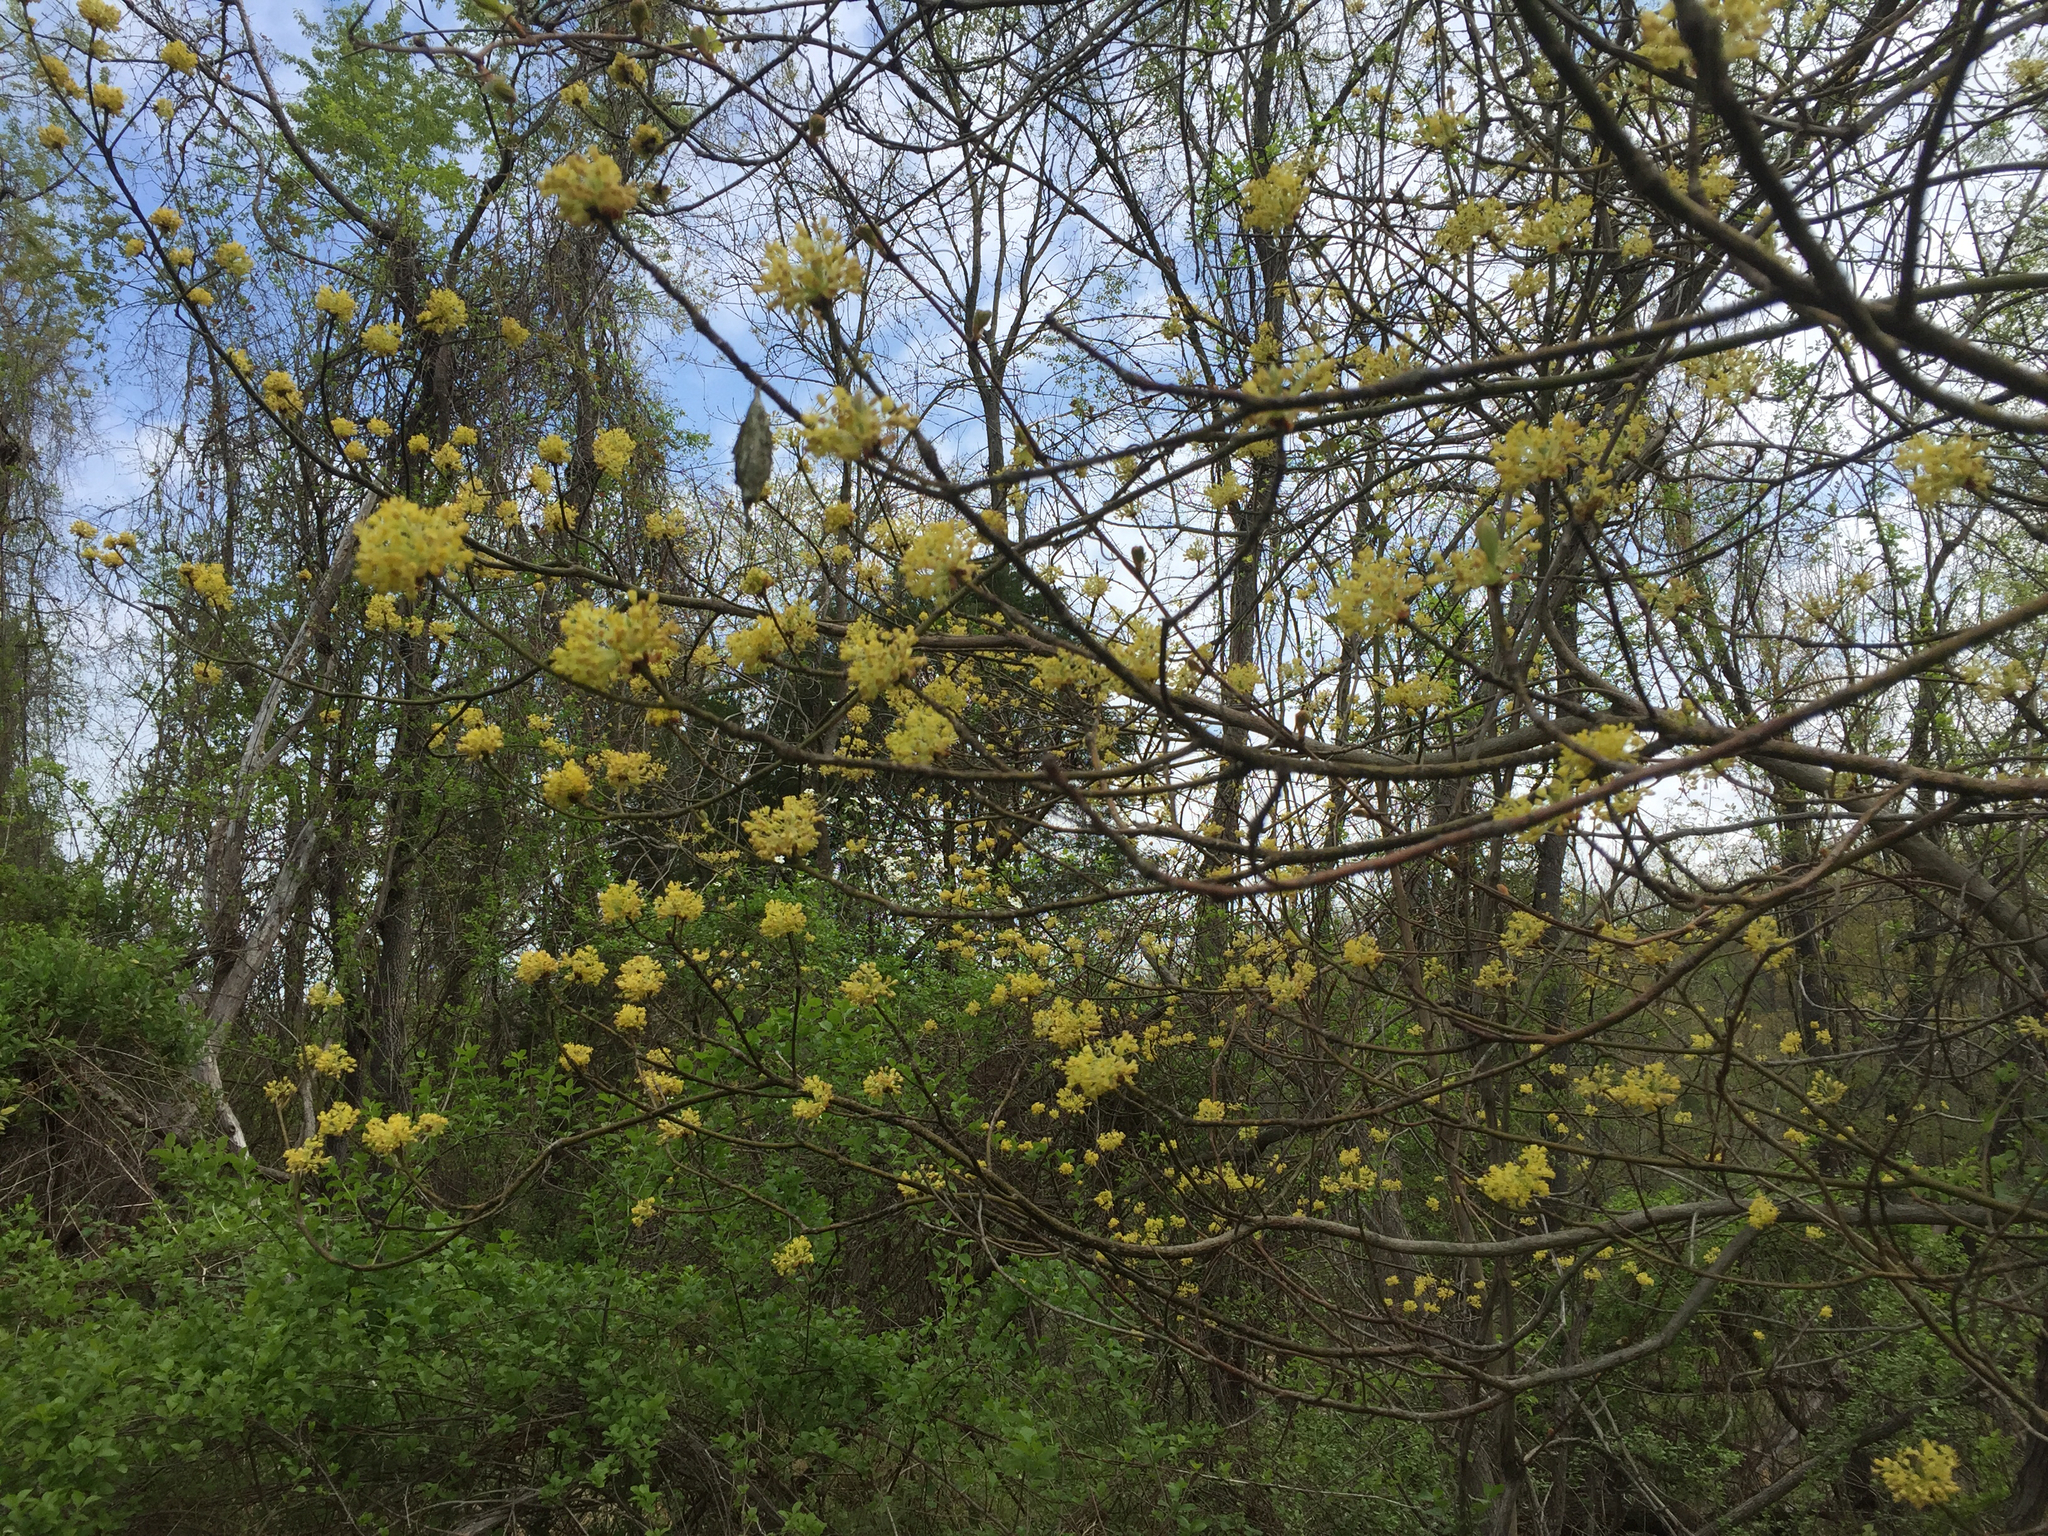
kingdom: Plantae
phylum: Tracheophyta
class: Magnoliopsida
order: Laurales
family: Lauraceae
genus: Sassafras
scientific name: Sassafras albidum
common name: Sassafras
